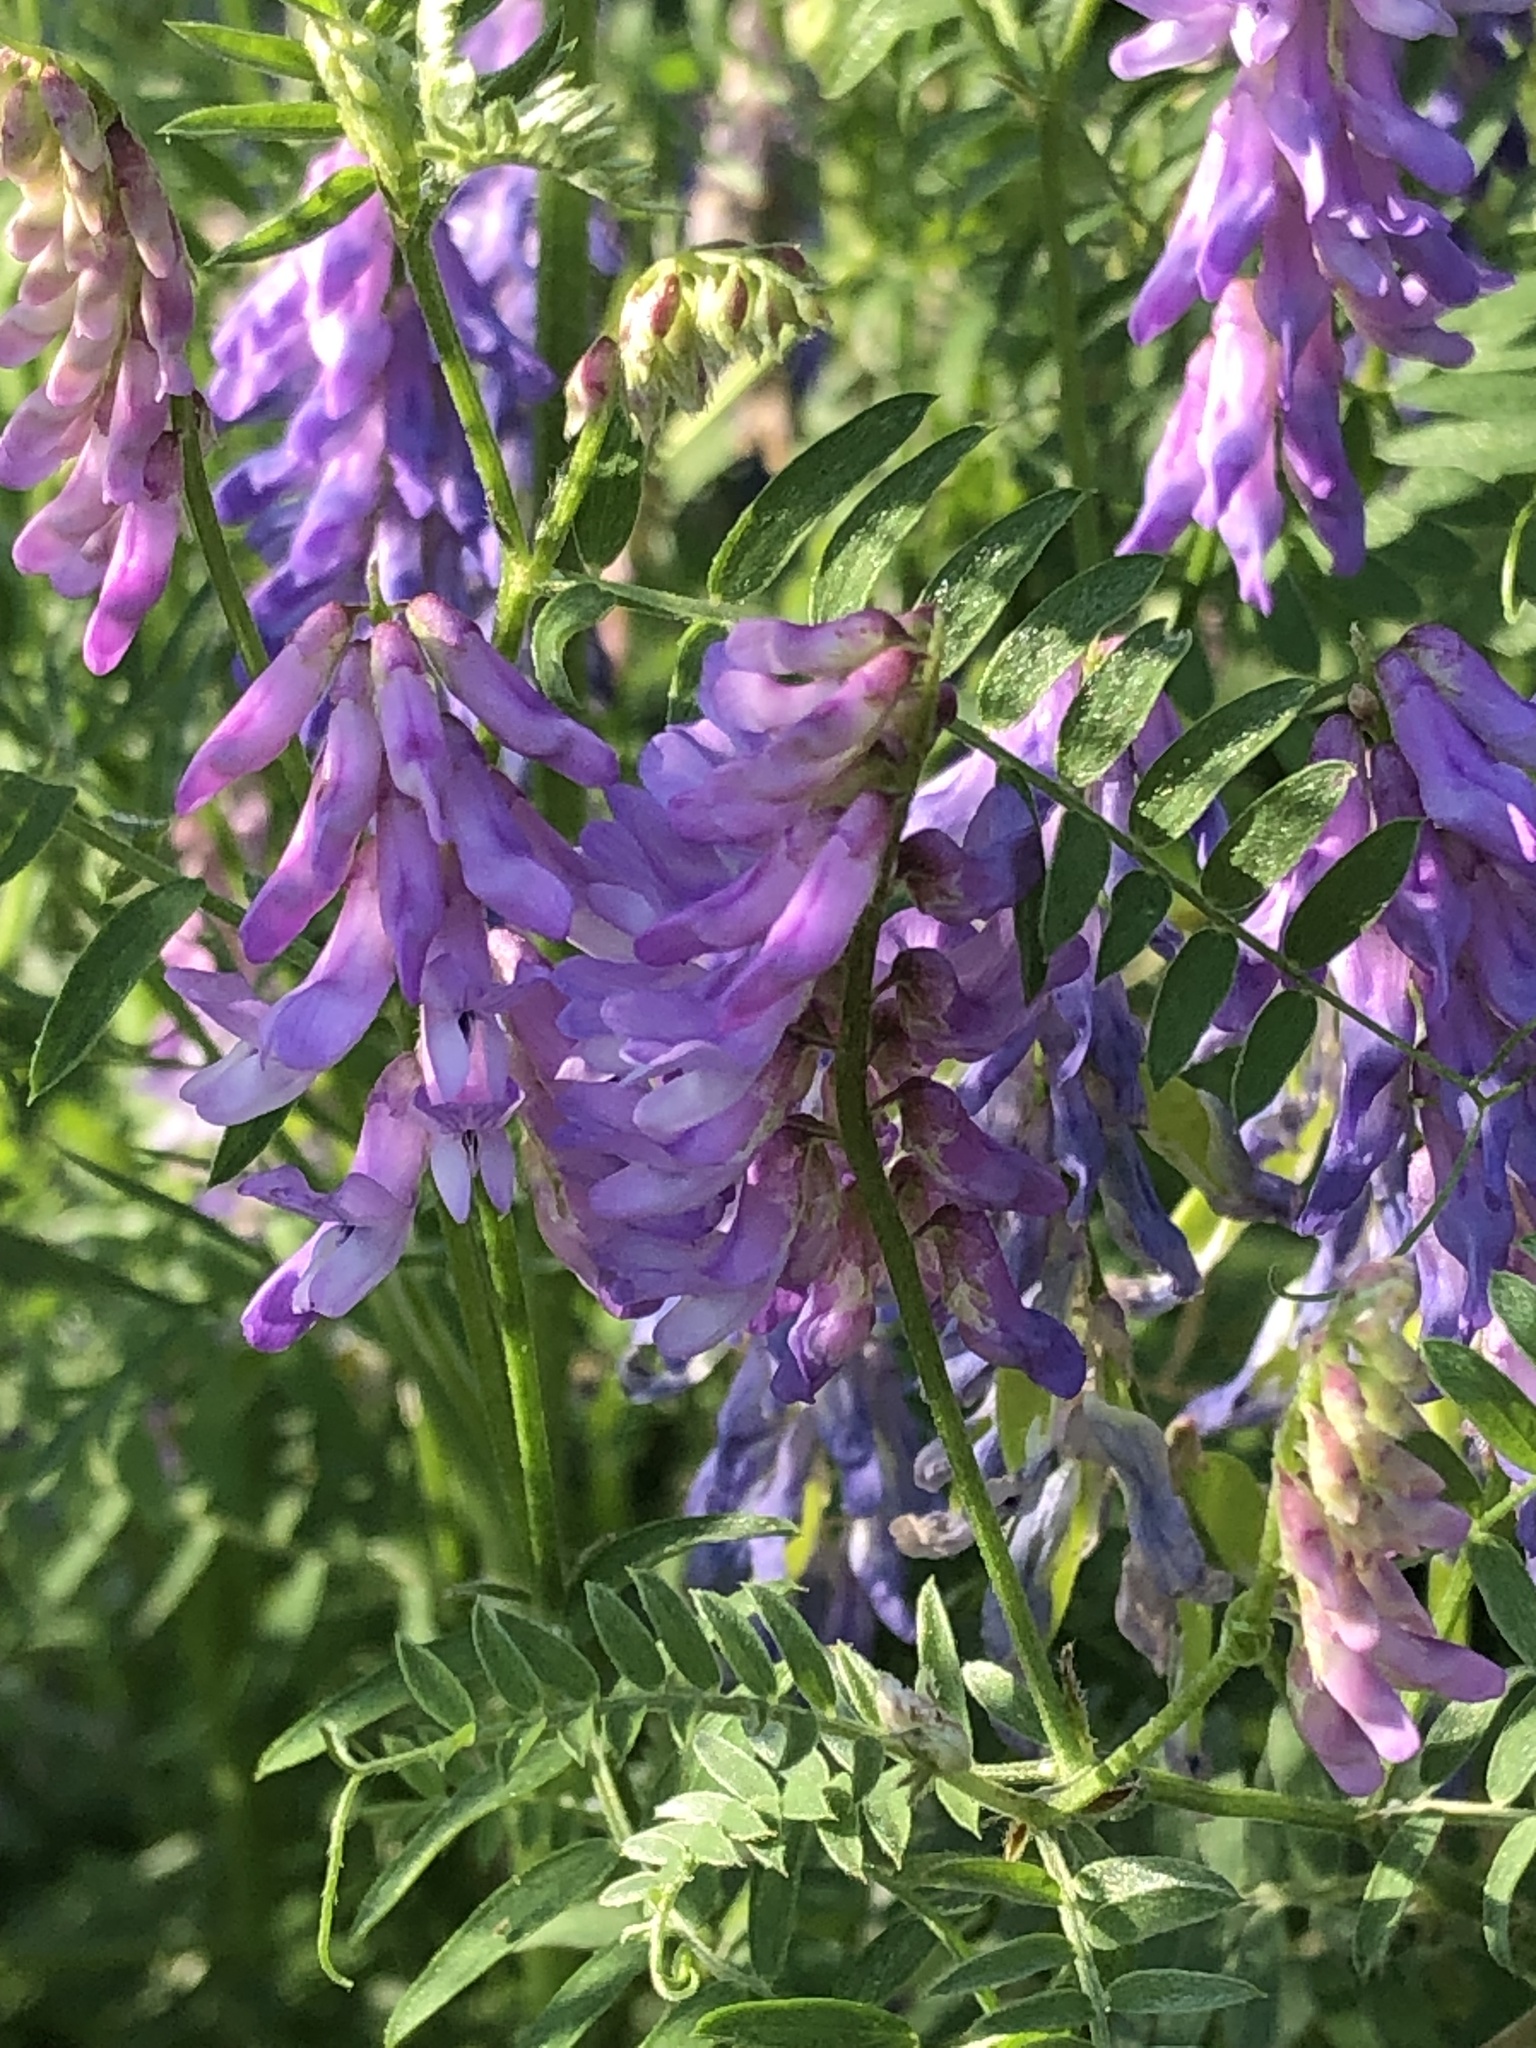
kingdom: Plantae
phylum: Tracheophyta
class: Magnoliopsida
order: Fabales
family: Fabaceae
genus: Vicia
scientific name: Vicia cracca
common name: Bird vetch
